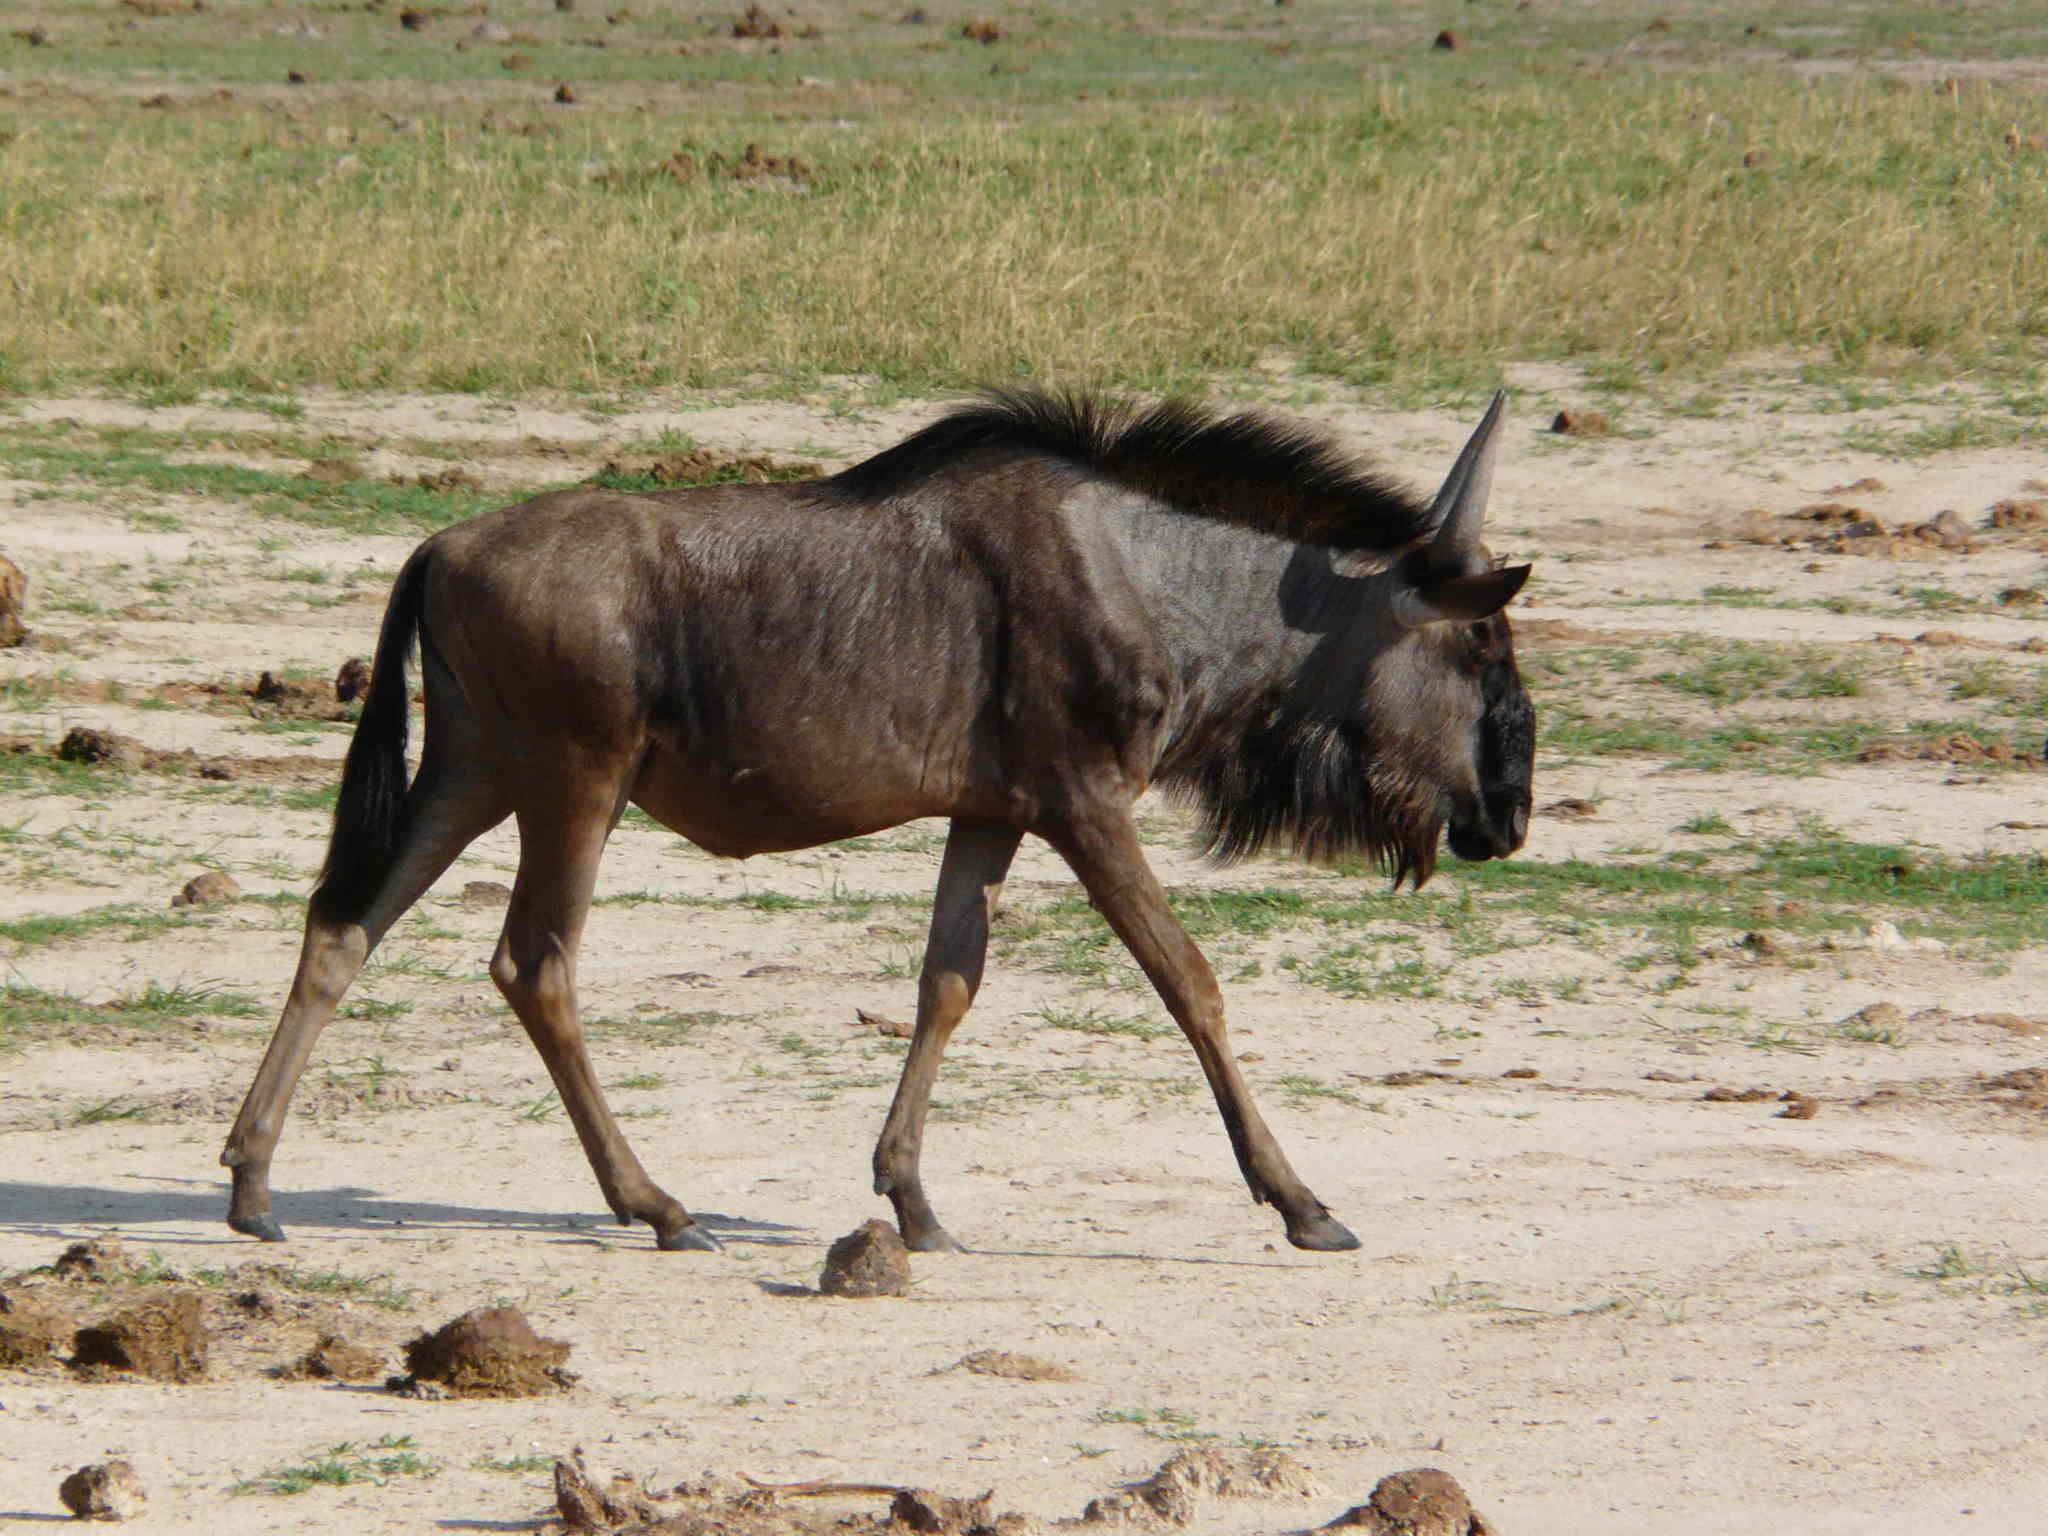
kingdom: Animalia
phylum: Chordata
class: Mammalia
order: Artiodactyla
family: Bovidae
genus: Connochaetes
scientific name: Connochaetes taurinus
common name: Blue wildebeest
